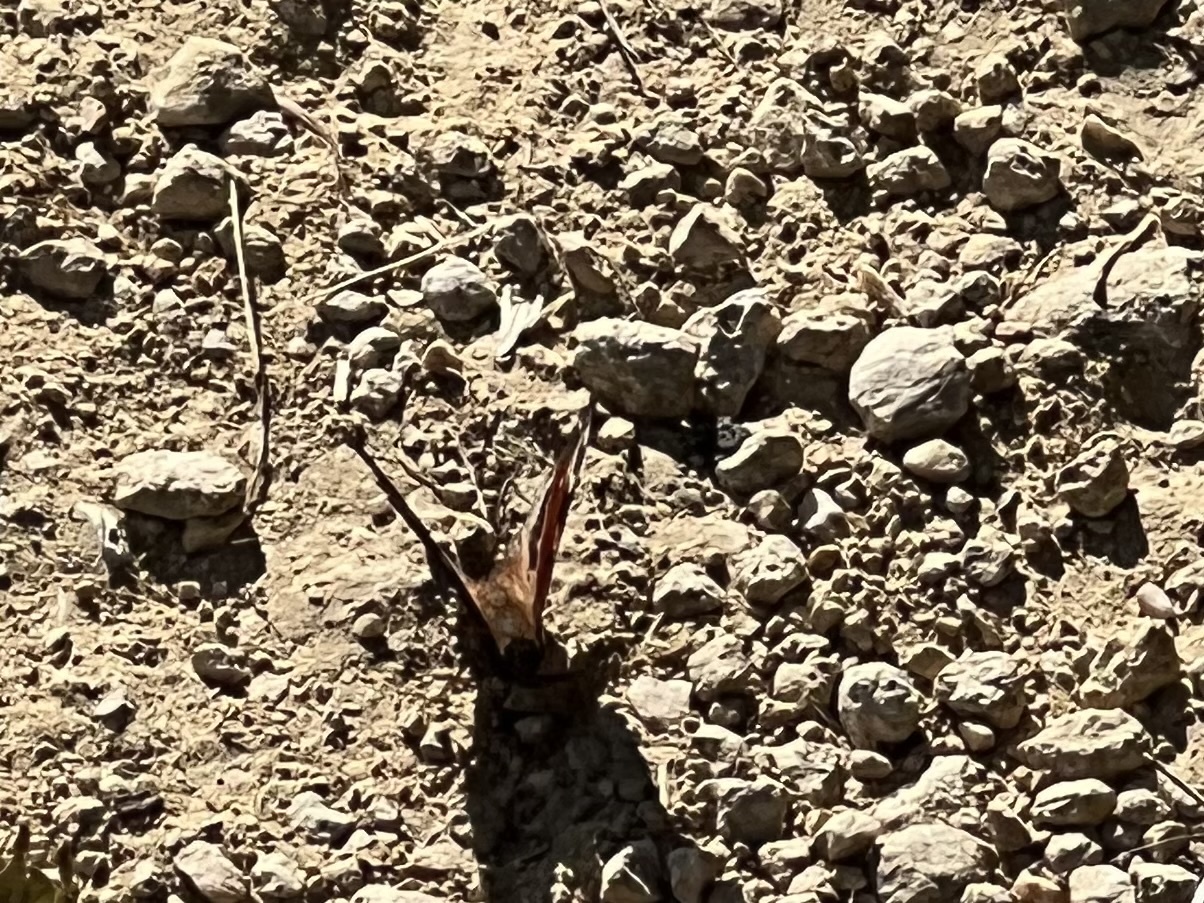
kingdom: Animalia
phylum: Arthropoda
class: Insecta
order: Lepidoptera
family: Nymphalidae
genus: Aglais
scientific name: Aglais io
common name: Peacock
